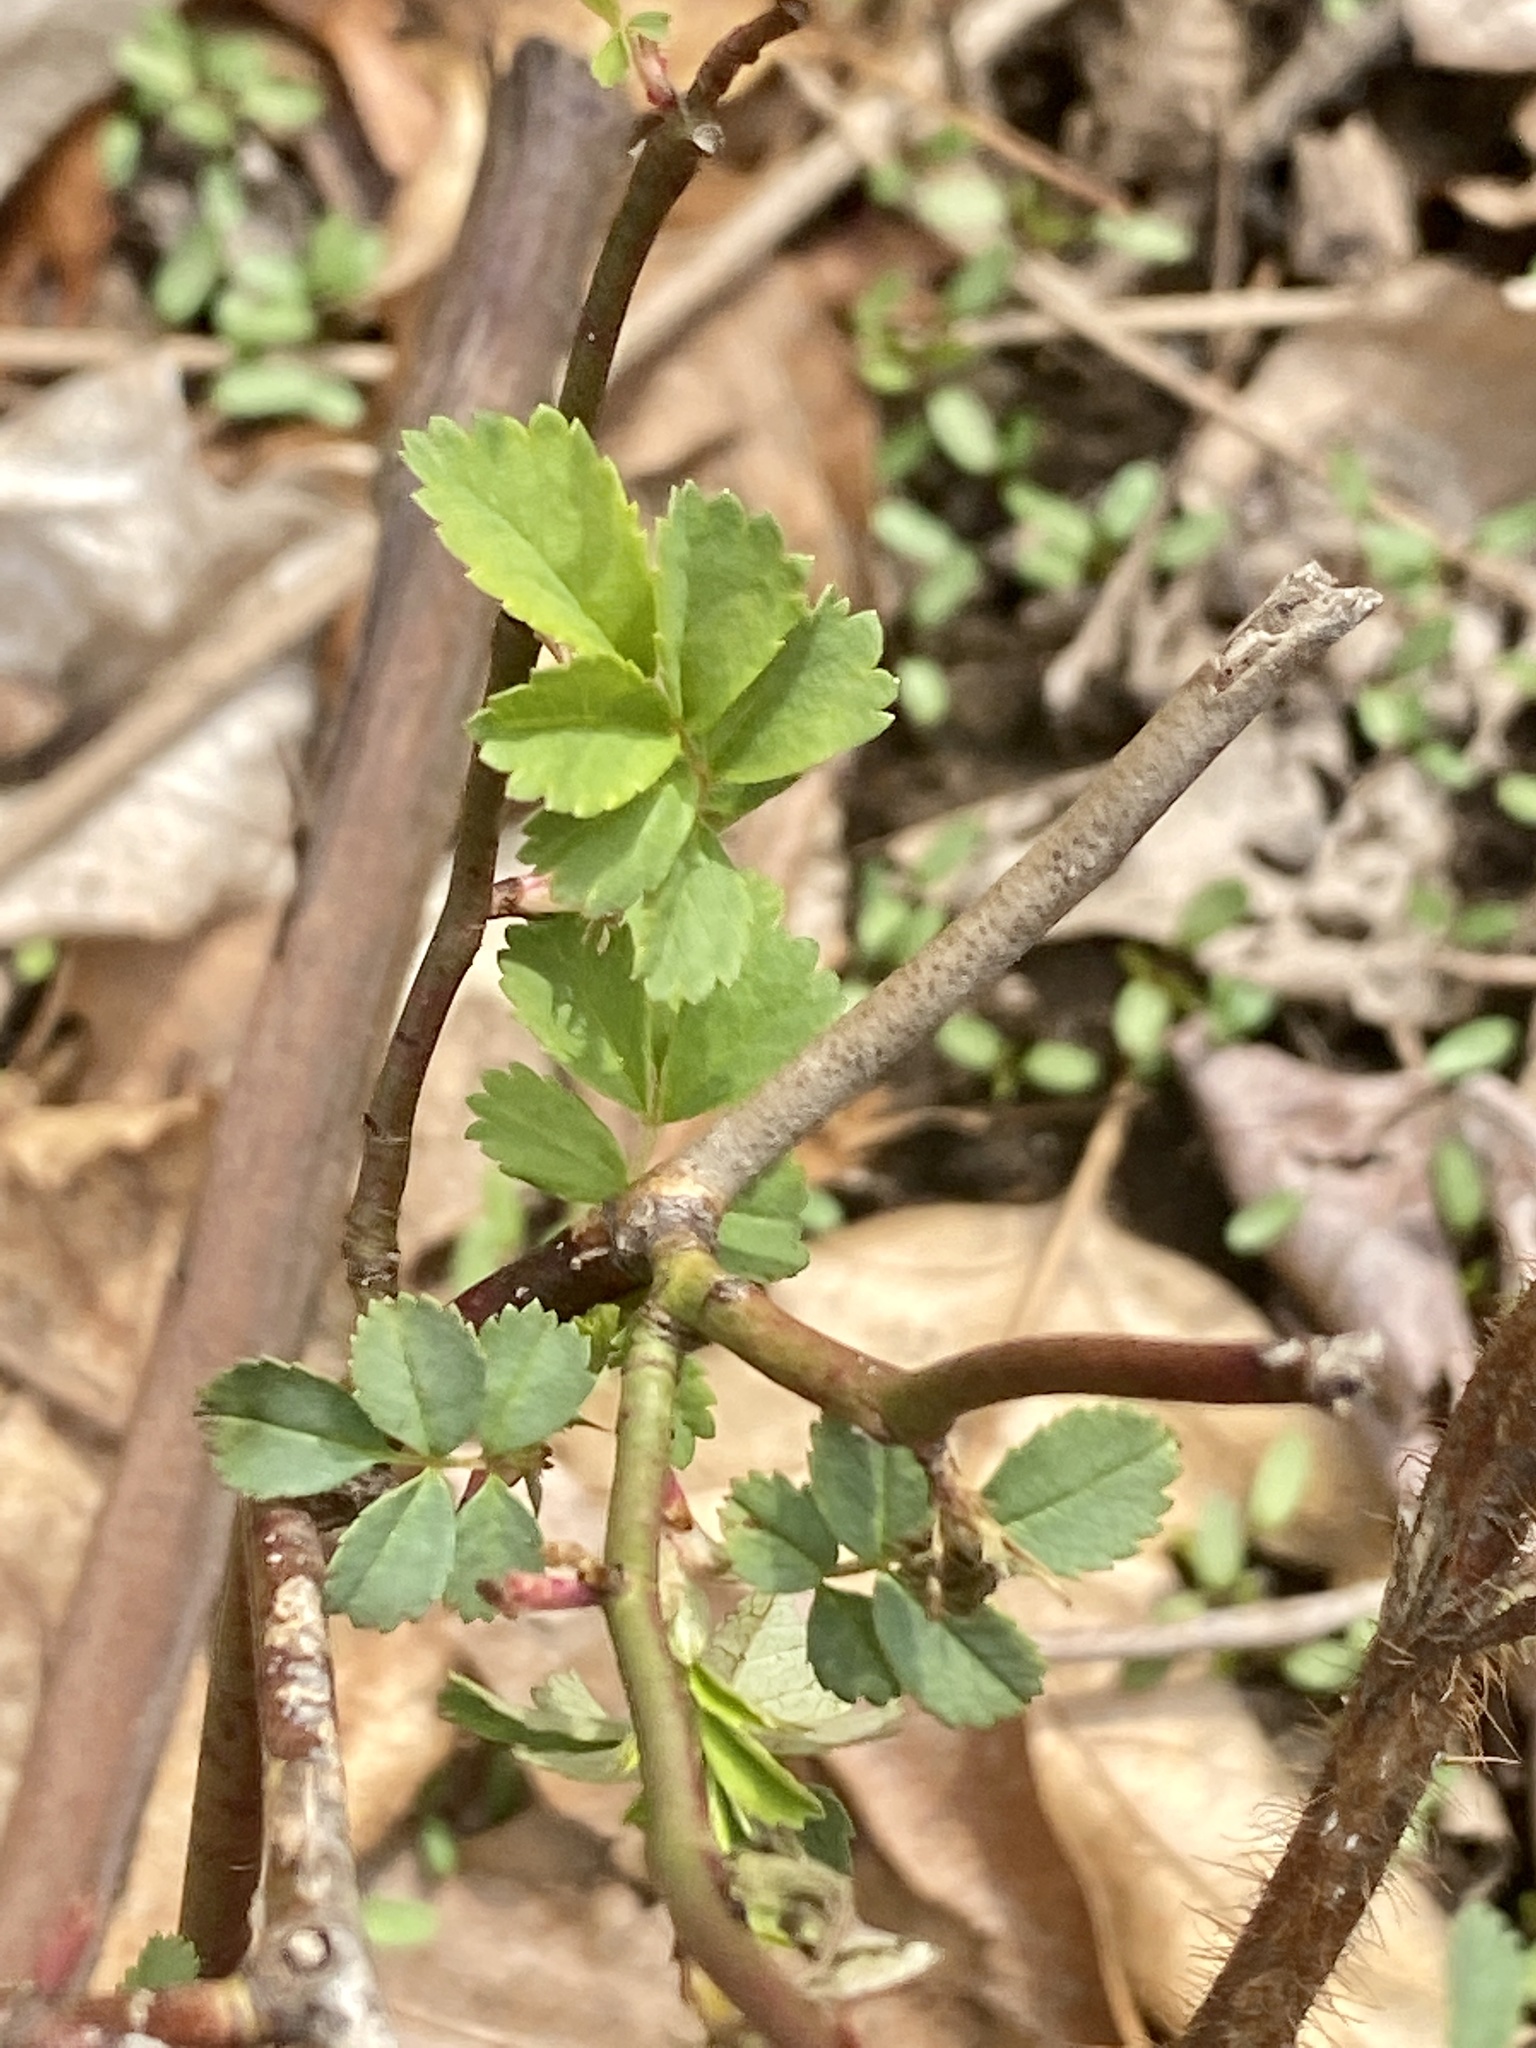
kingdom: Plantae
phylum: Tracheophyta
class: Magnoliopsida
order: Rosales
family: Rosaceae
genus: Rosa
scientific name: Rosa multiflora
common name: Multiflora rose
